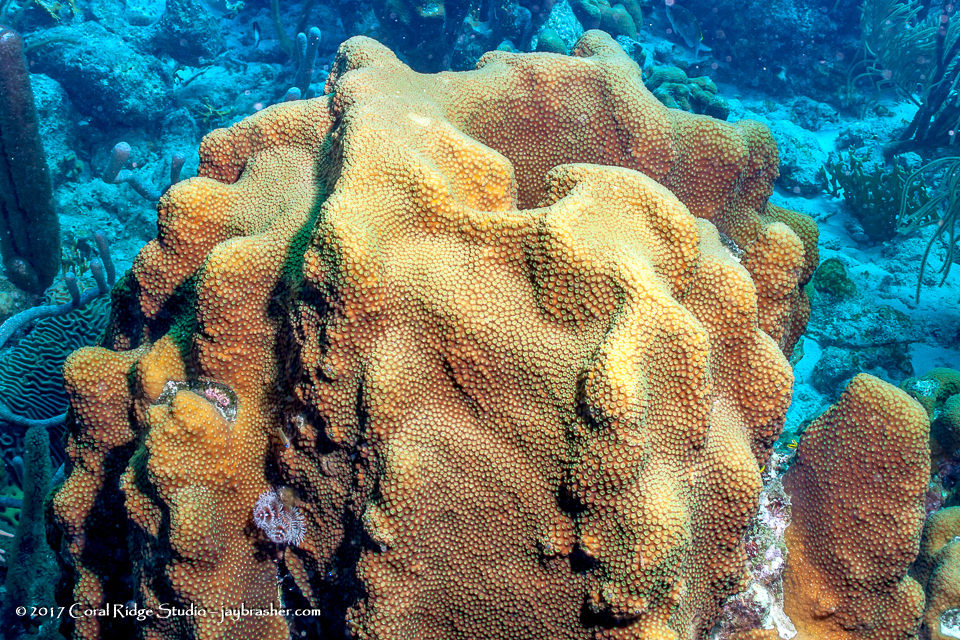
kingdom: Animalia
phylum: Cnidaria
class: Anthozoa
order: Scleractinia
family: Merulinidae
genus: Orbicella
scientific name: Orbicella faveolata
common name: Mountainous star coral
